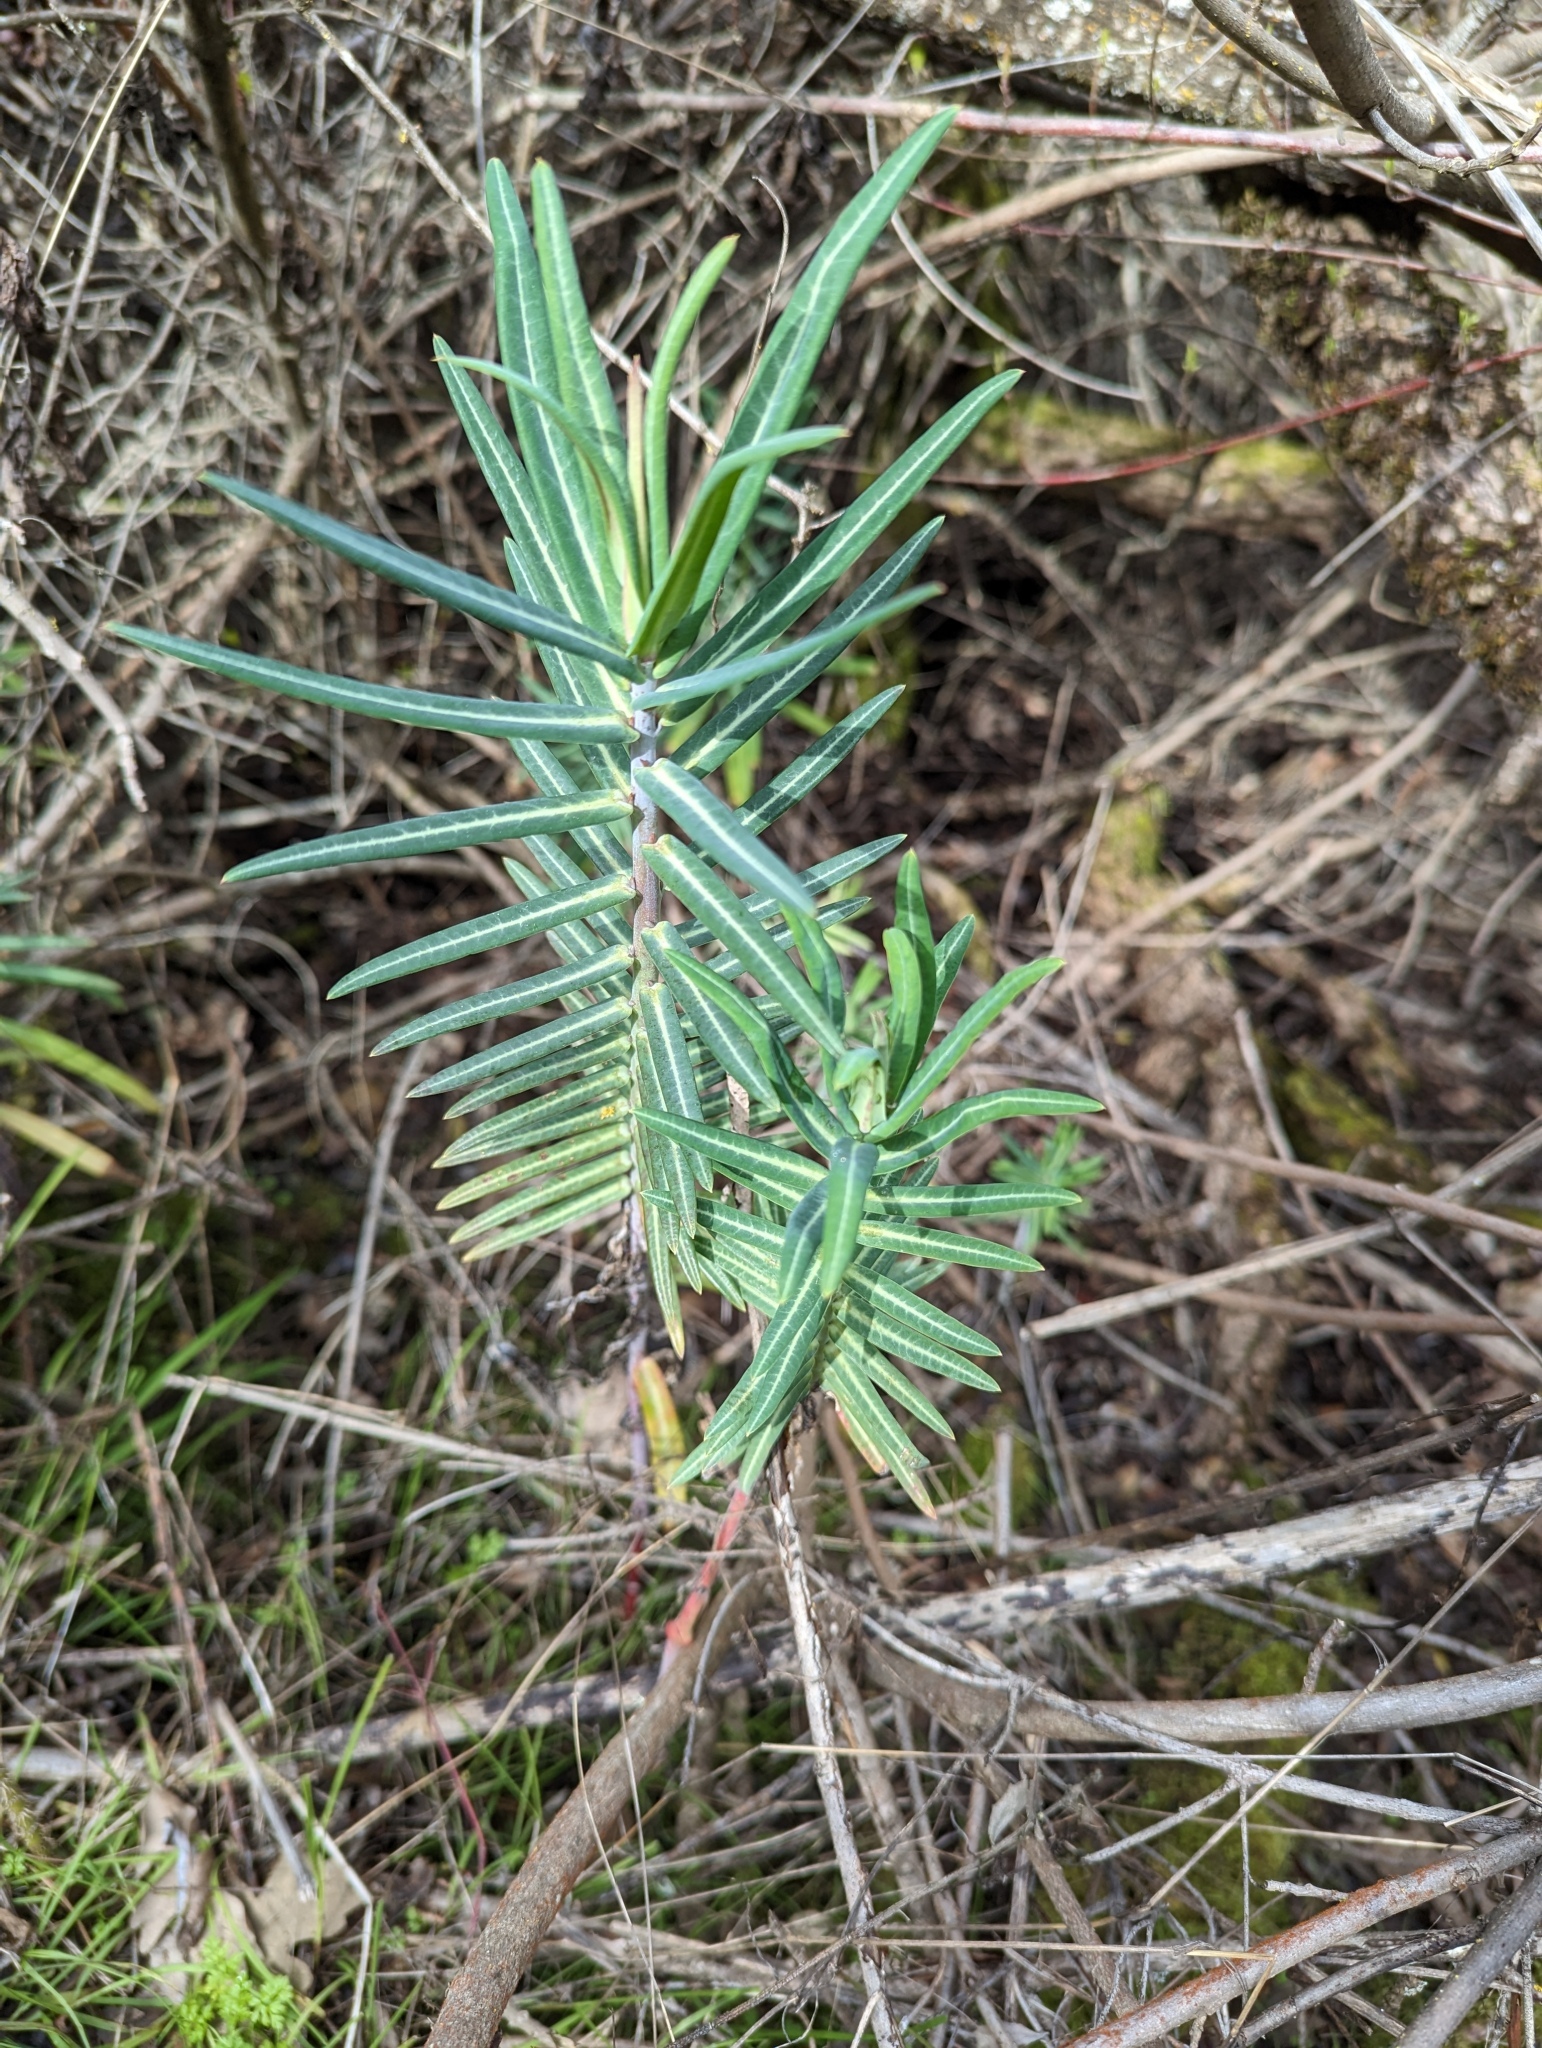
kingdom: Plantae
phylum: Tracheophyta
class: Magnoliopsida
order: Malpighiales
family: Euphorbiaceae
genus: Euphorbia
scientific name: Euphorbia lathyris
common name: Caper spurge
